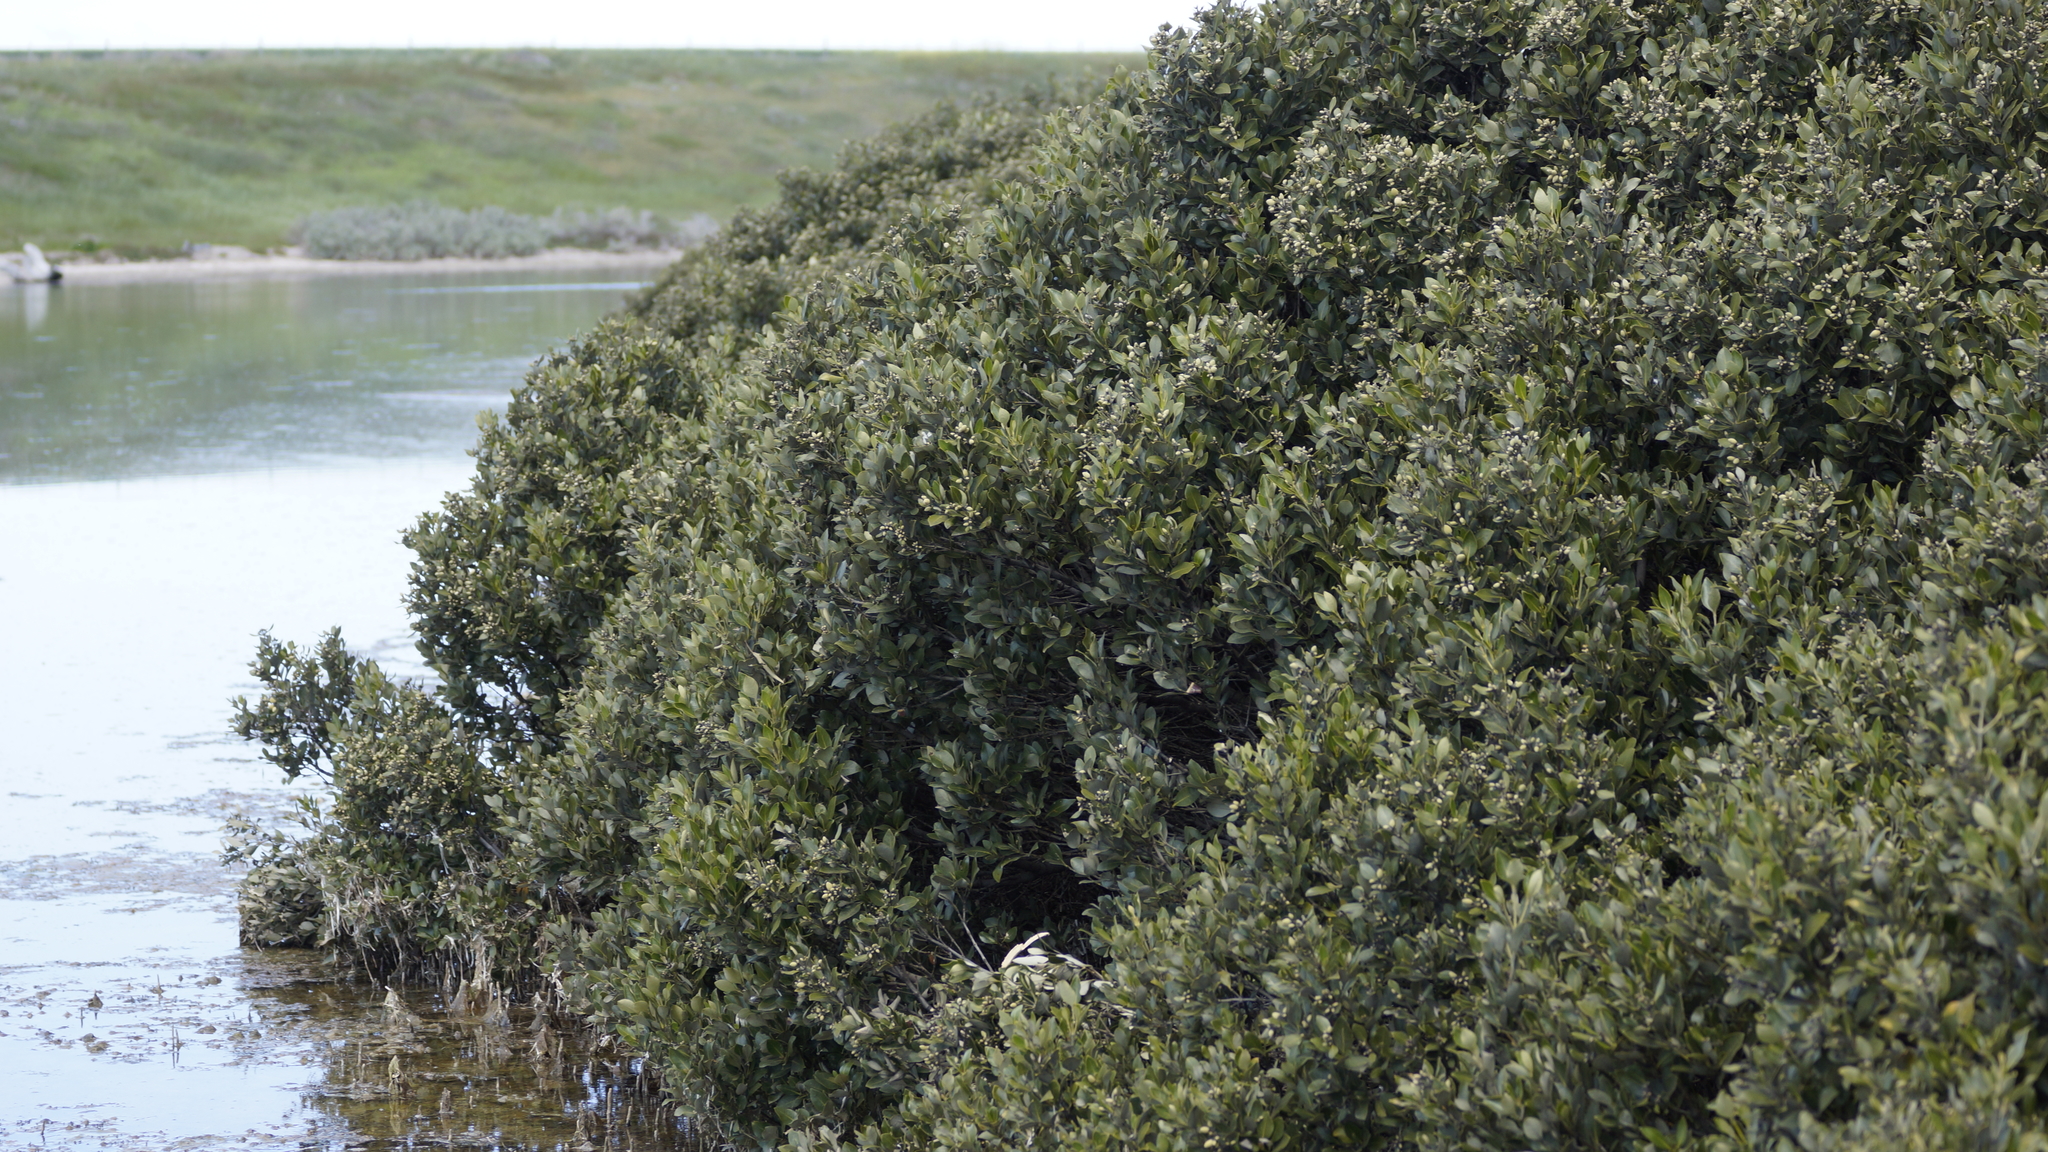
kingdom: Plantae
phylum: Tracheophyta
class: Magnoliopsida
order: Lamiales
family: Acanthaceae
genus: Avicennia
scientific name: Avicennia marina
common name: Gray mangrove
